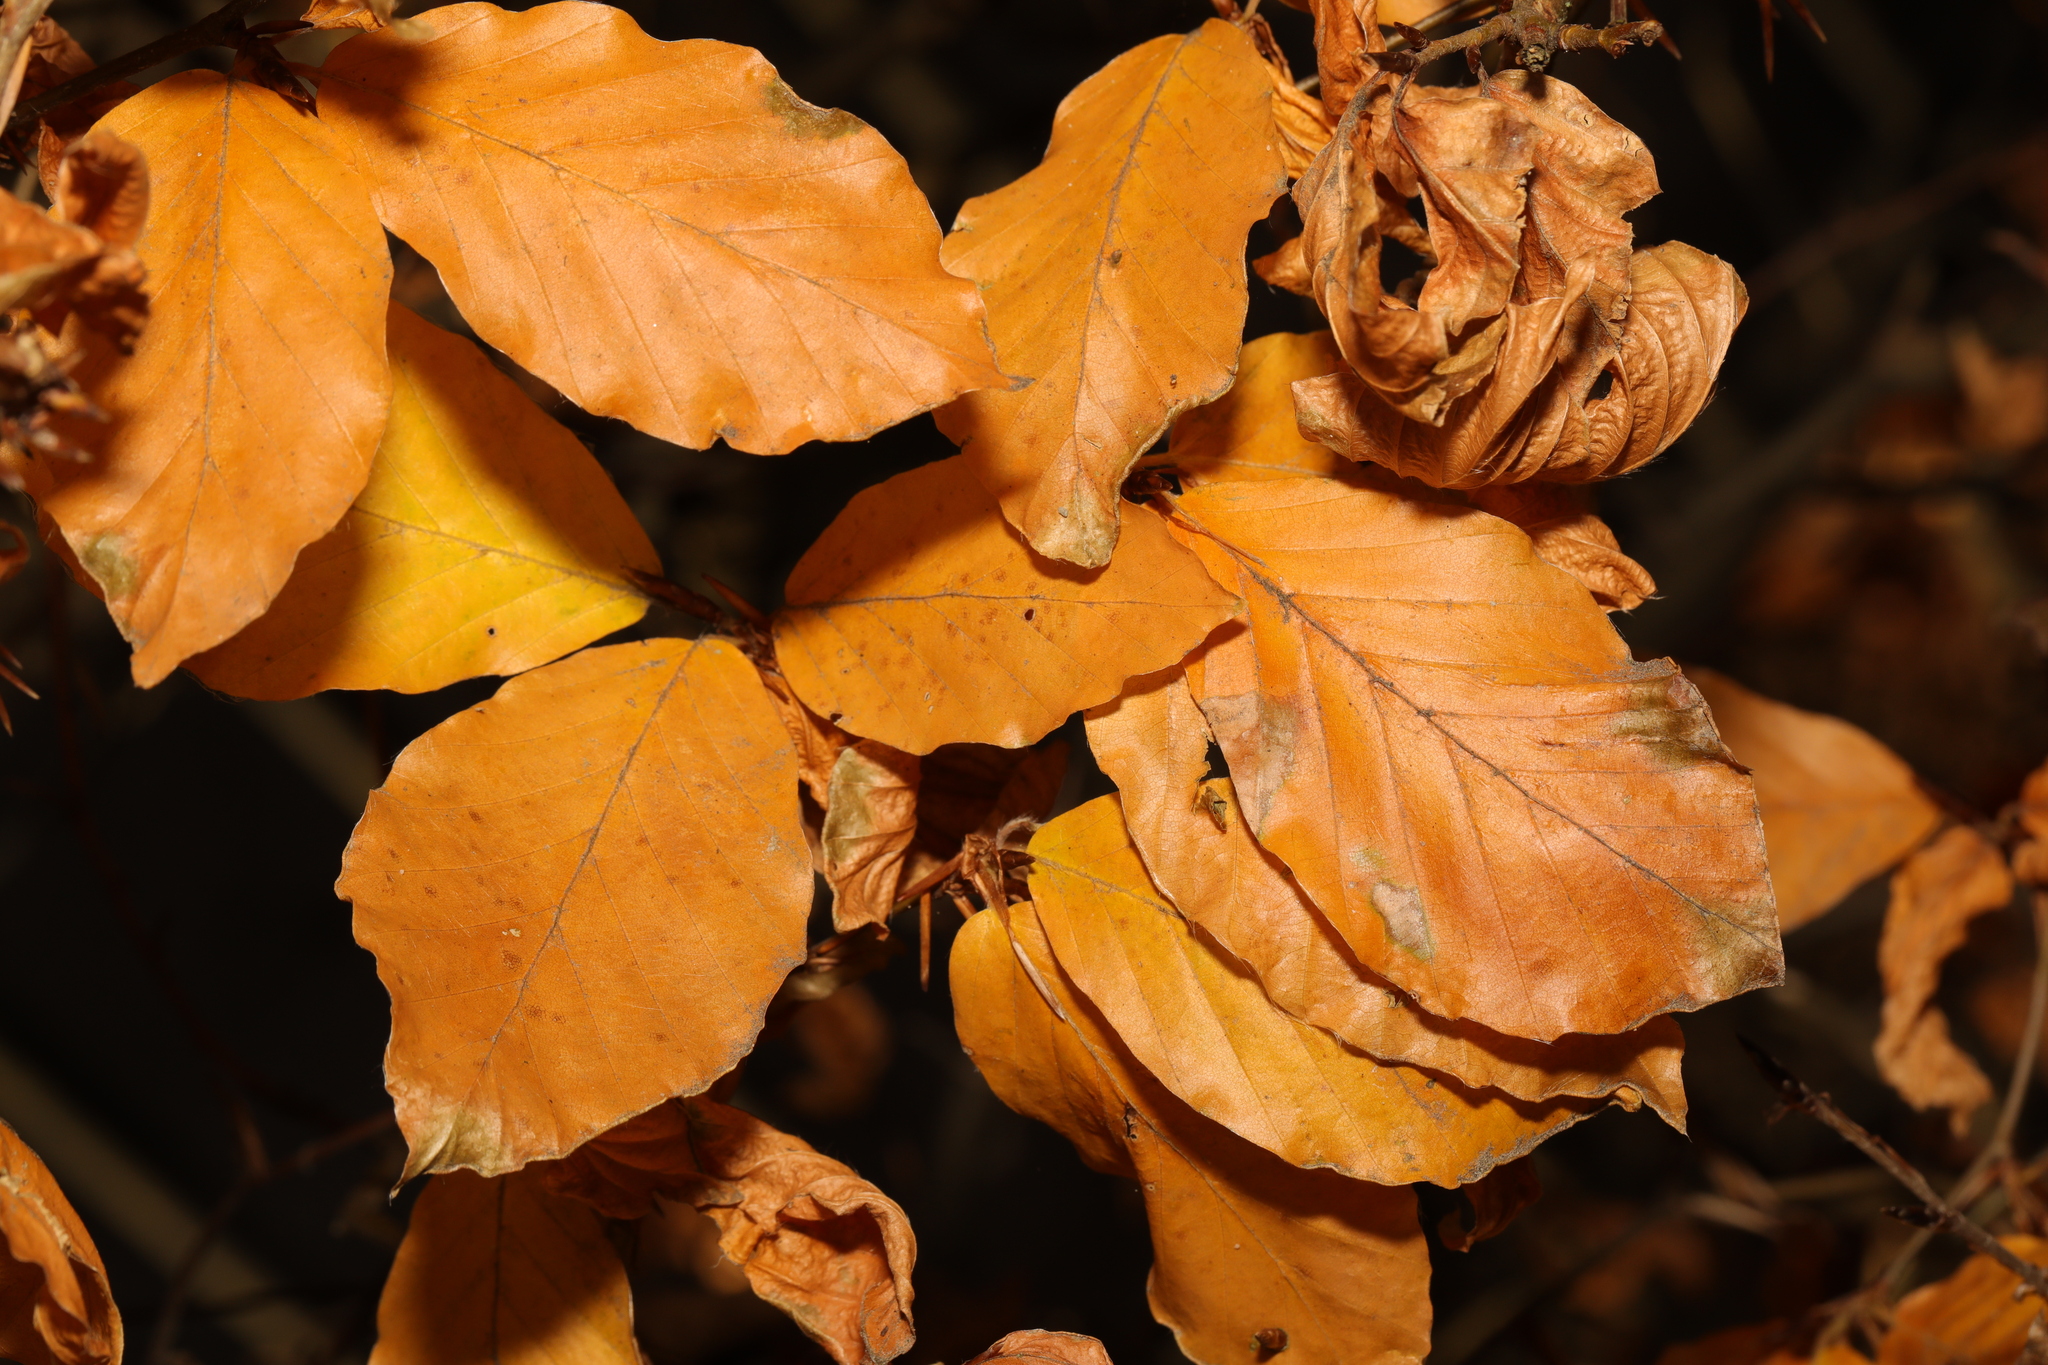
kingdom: Plantae
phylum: Tracheophyta
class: Magnoliopsida
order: Fagales
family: Fagaceae
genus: Fagus
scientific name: Fagus sylvatica
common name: Beech
